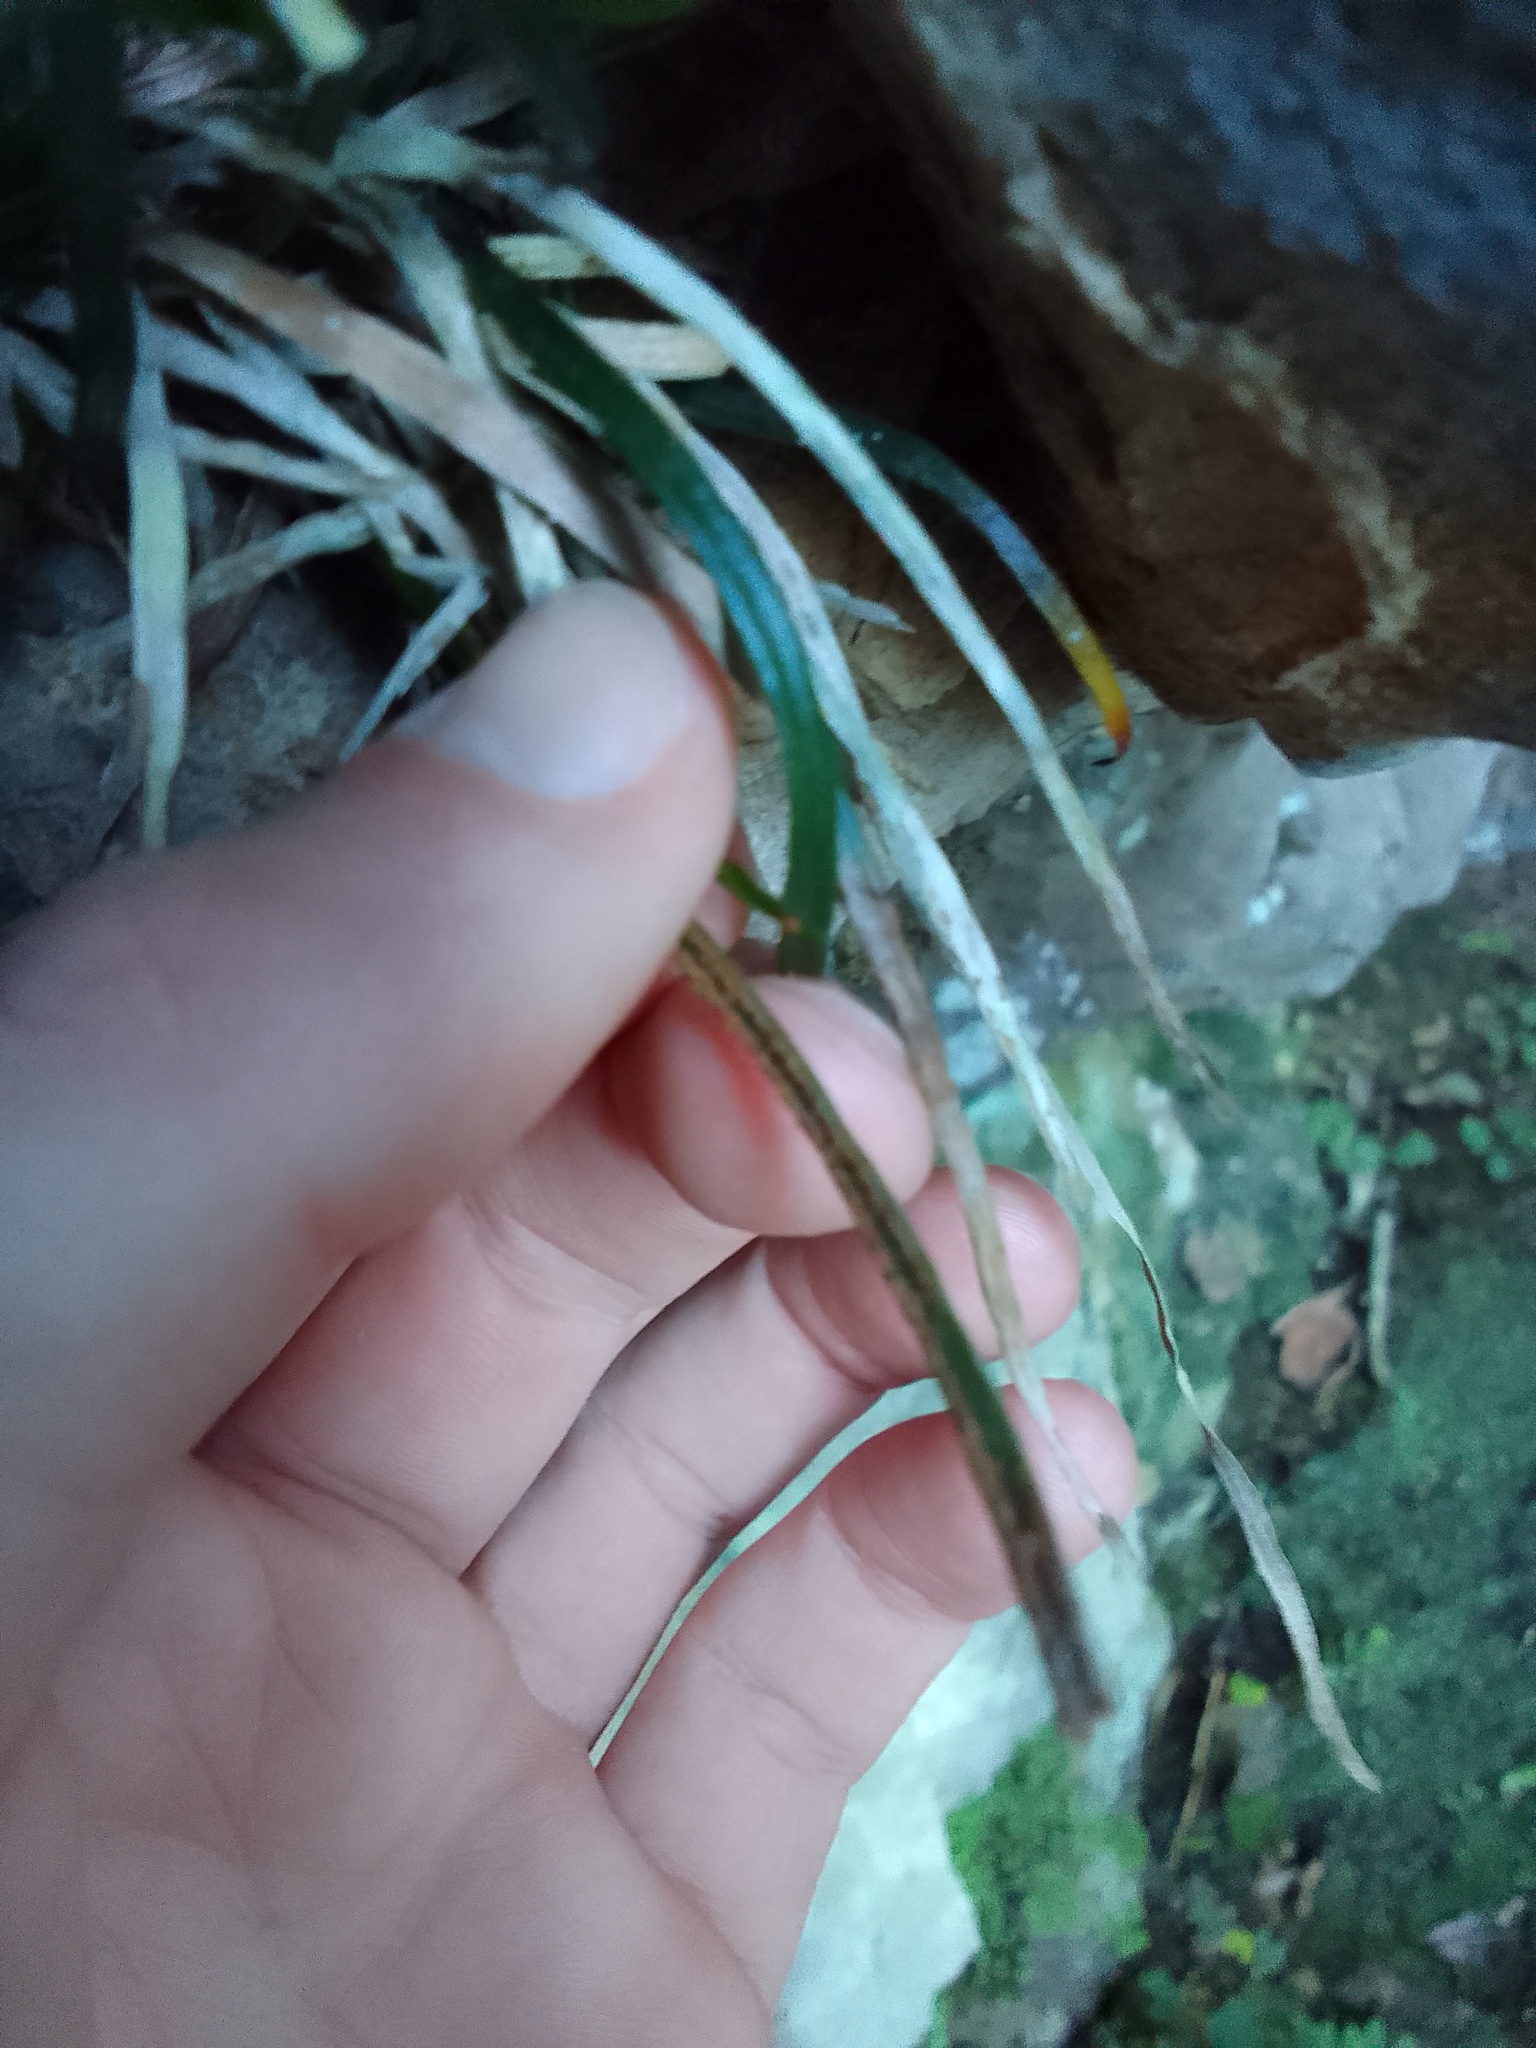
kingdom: Plantae
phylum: Tracheophyta
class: Polypodiopsida
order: Polypodiales
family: Pteridaceae
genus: Vittaria
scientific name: Vittaria isoetifolia
